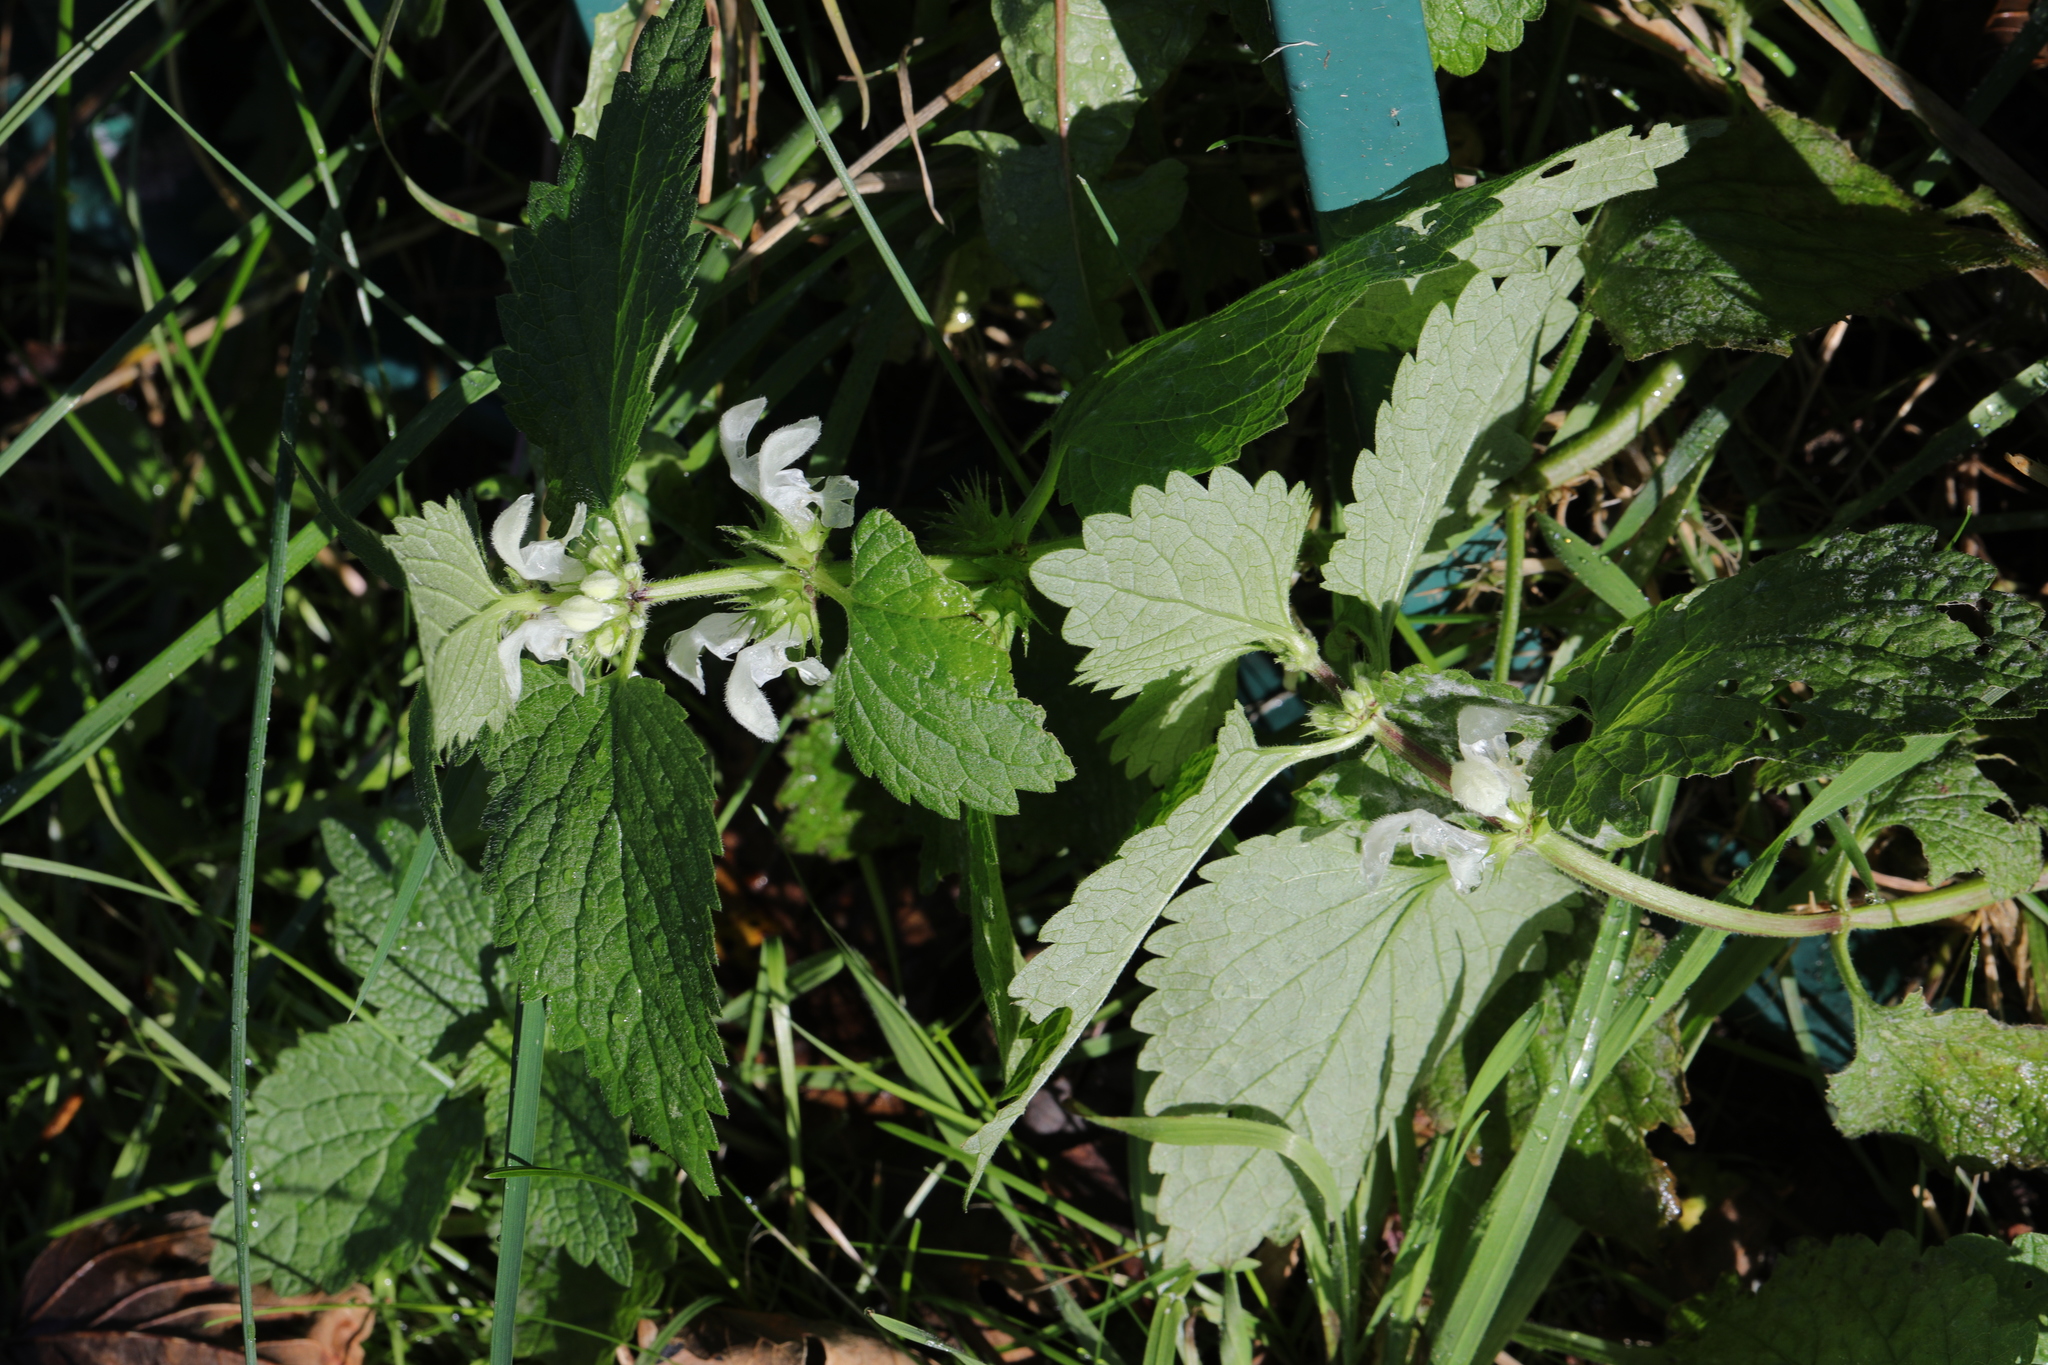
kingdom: Plantae
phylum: Tracheophyta
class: Magnoliopsida
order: Lamiales
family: Lamiaceae
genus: Lamium
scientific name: Lamium album
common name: White dead-nettle
